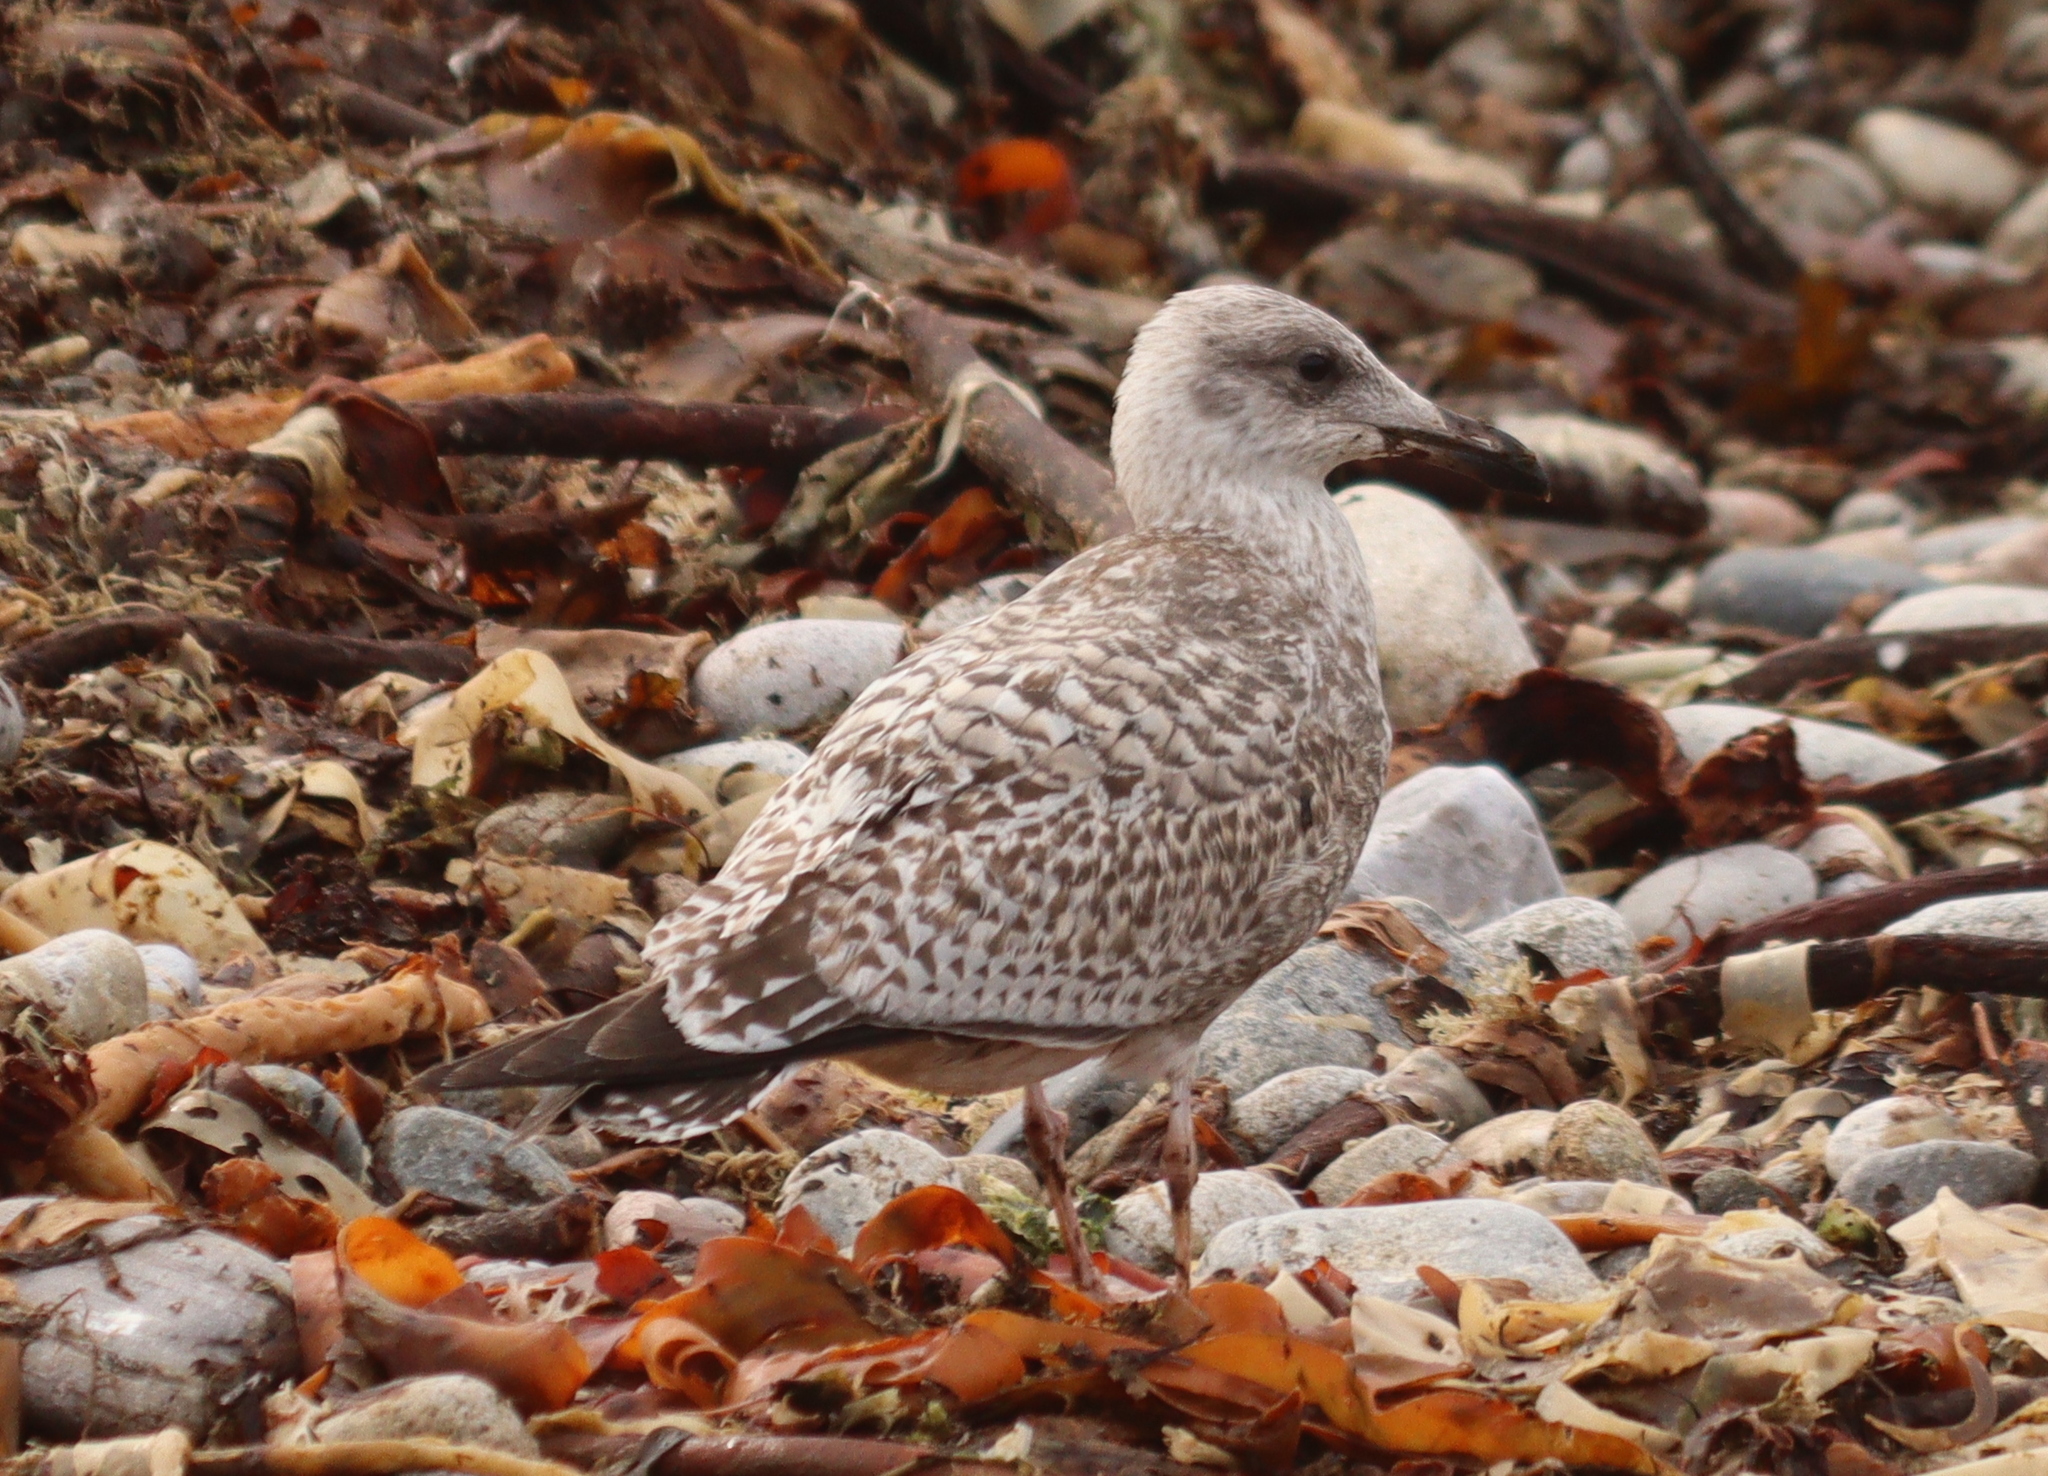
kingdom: Animalia
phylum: Chordata
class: Aves
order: Charadriiformes
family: Laridae
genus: Larus
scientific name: Larus argentatus
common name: Herring gull
